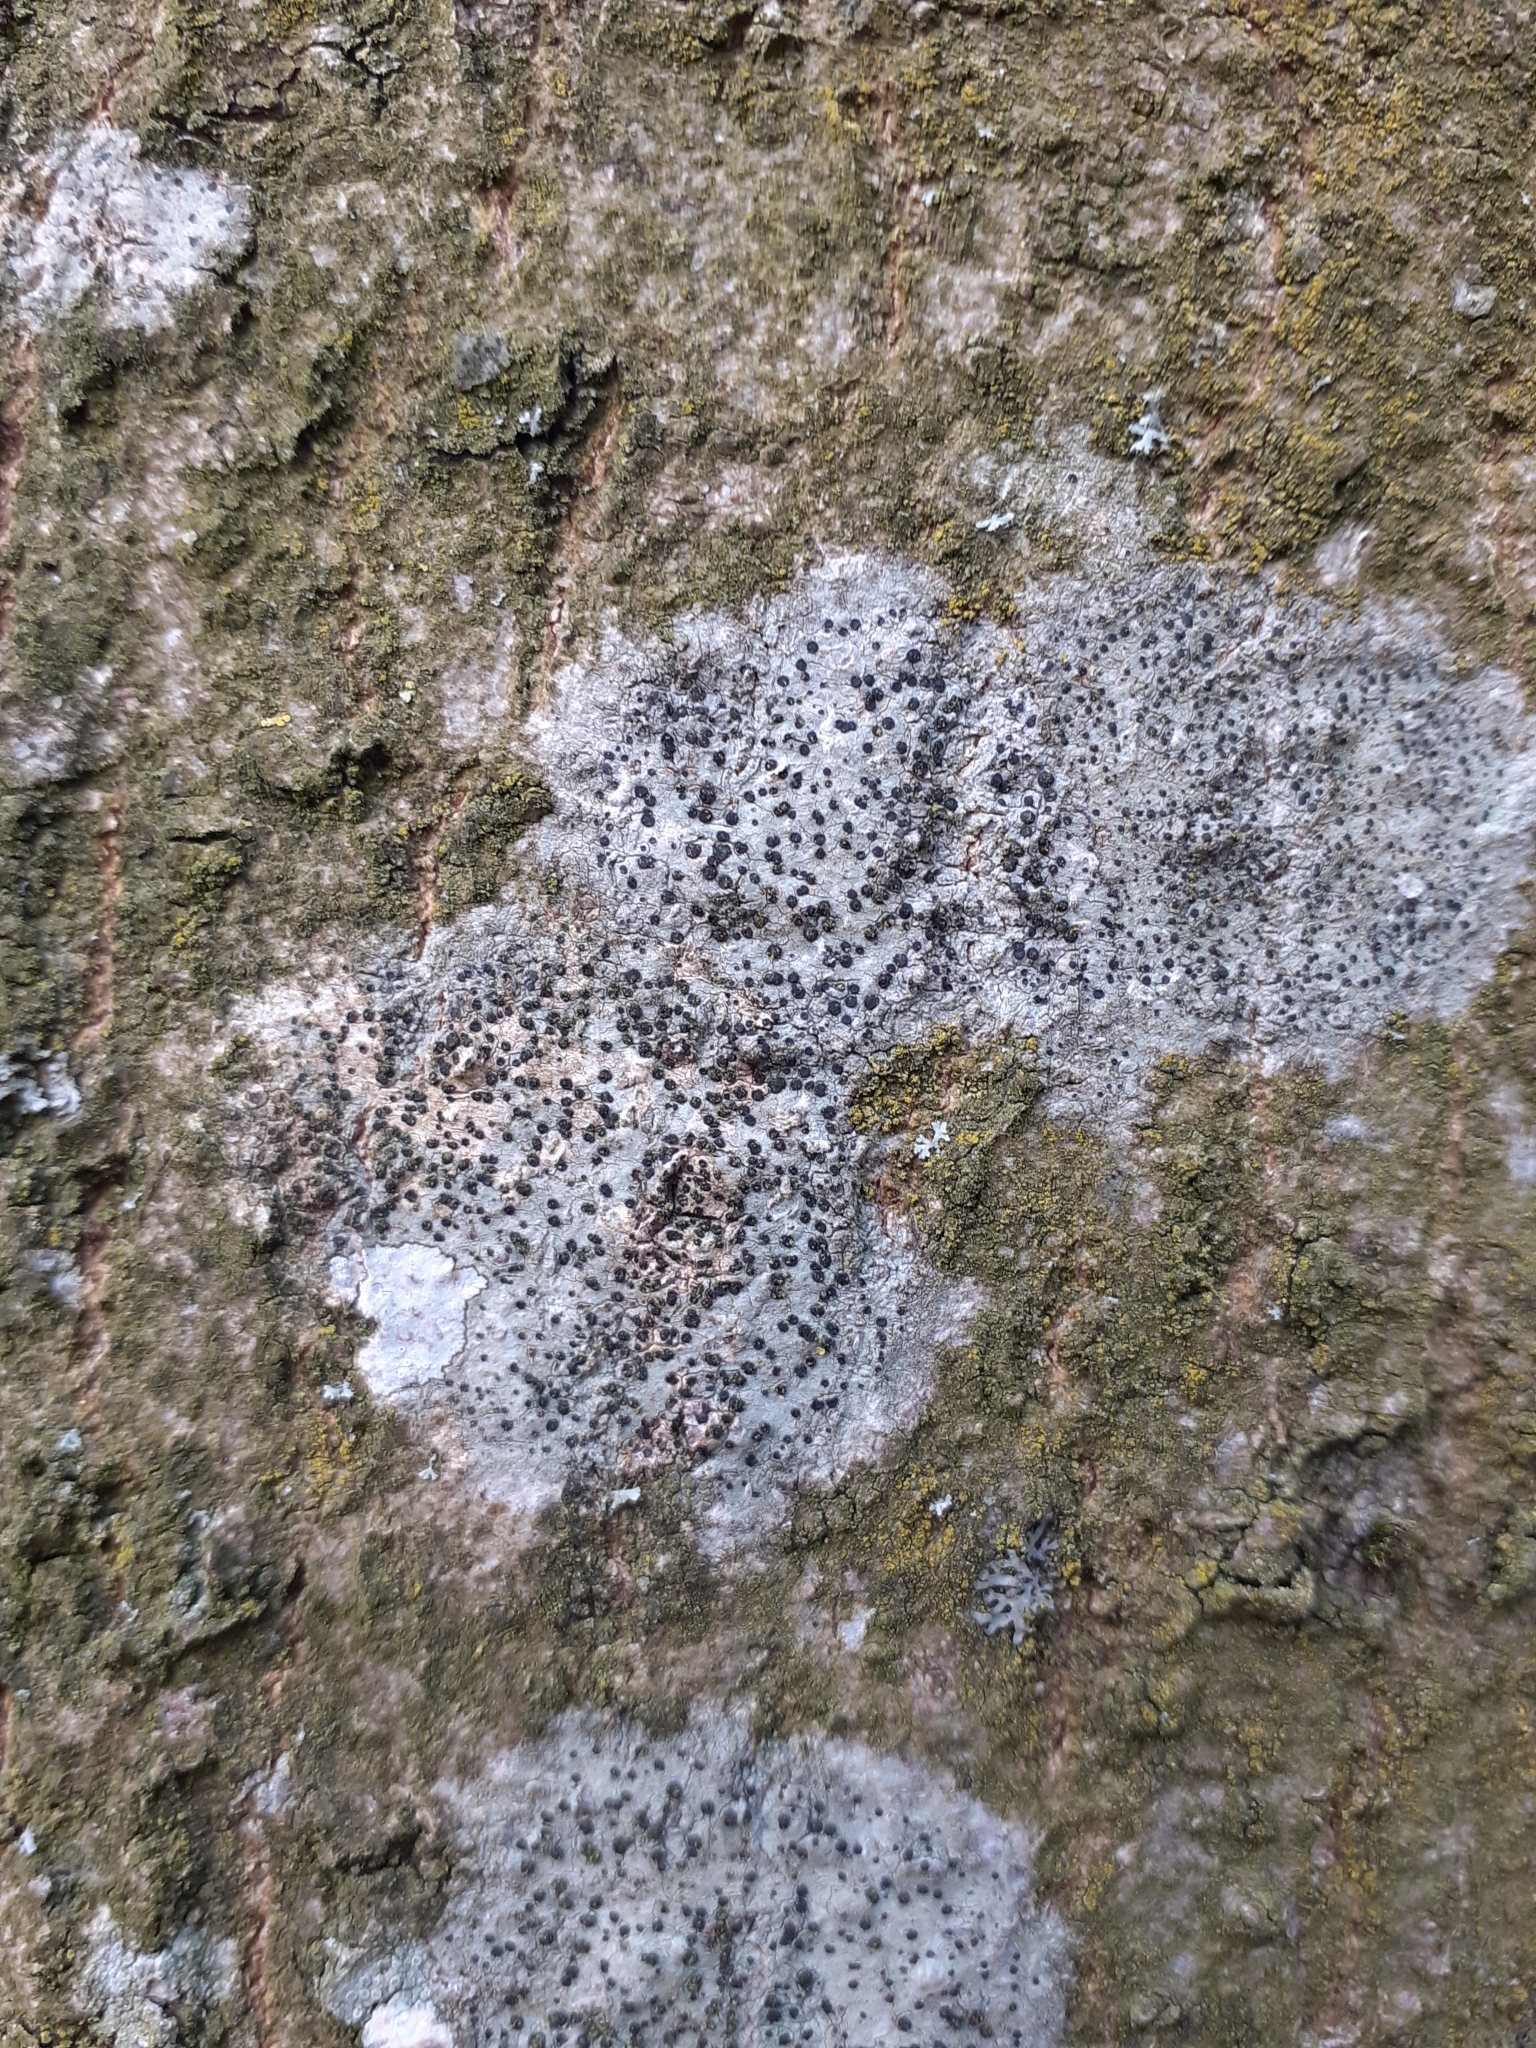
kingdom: Fungi
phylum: Ascomycota
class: Lecanoromycetes
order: Lecanorales
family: Lecanoraceae
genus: Lecidella
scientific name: Lecidella elaeochroma
